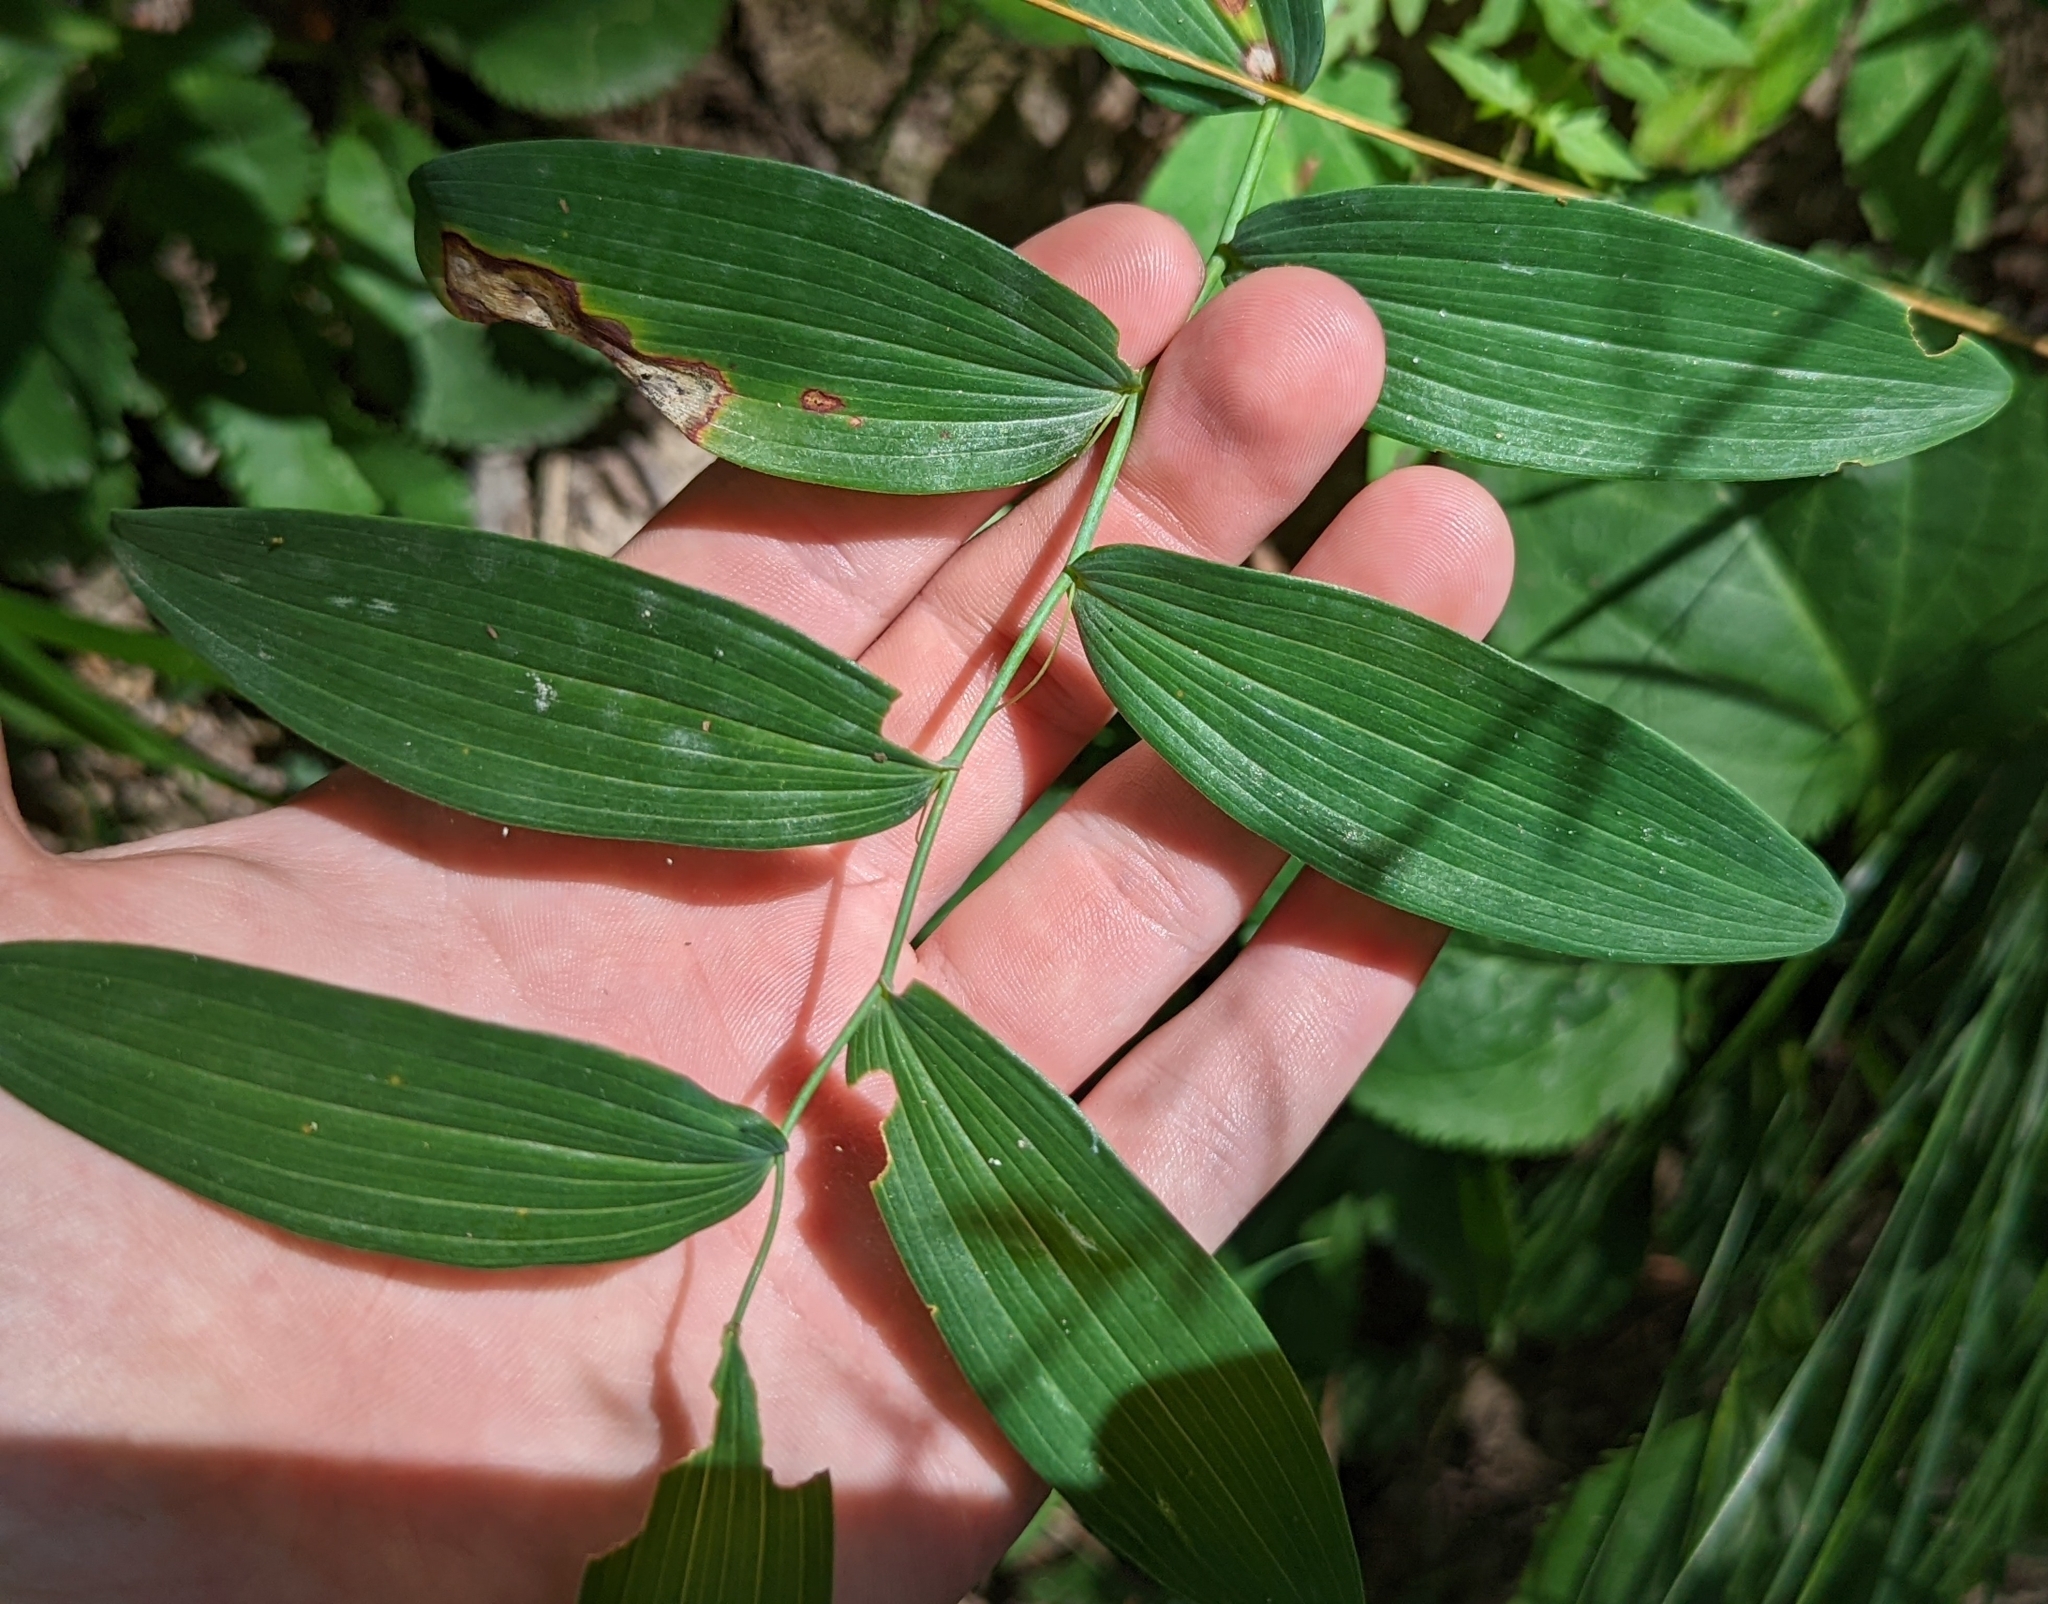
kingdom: Plantae
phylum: Tracheophyta
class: Liliopsida
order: Asparagales
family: Asparagaceae
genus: Polygonatum
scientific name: Polygonatum biflorum
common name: American solomon's-seal
